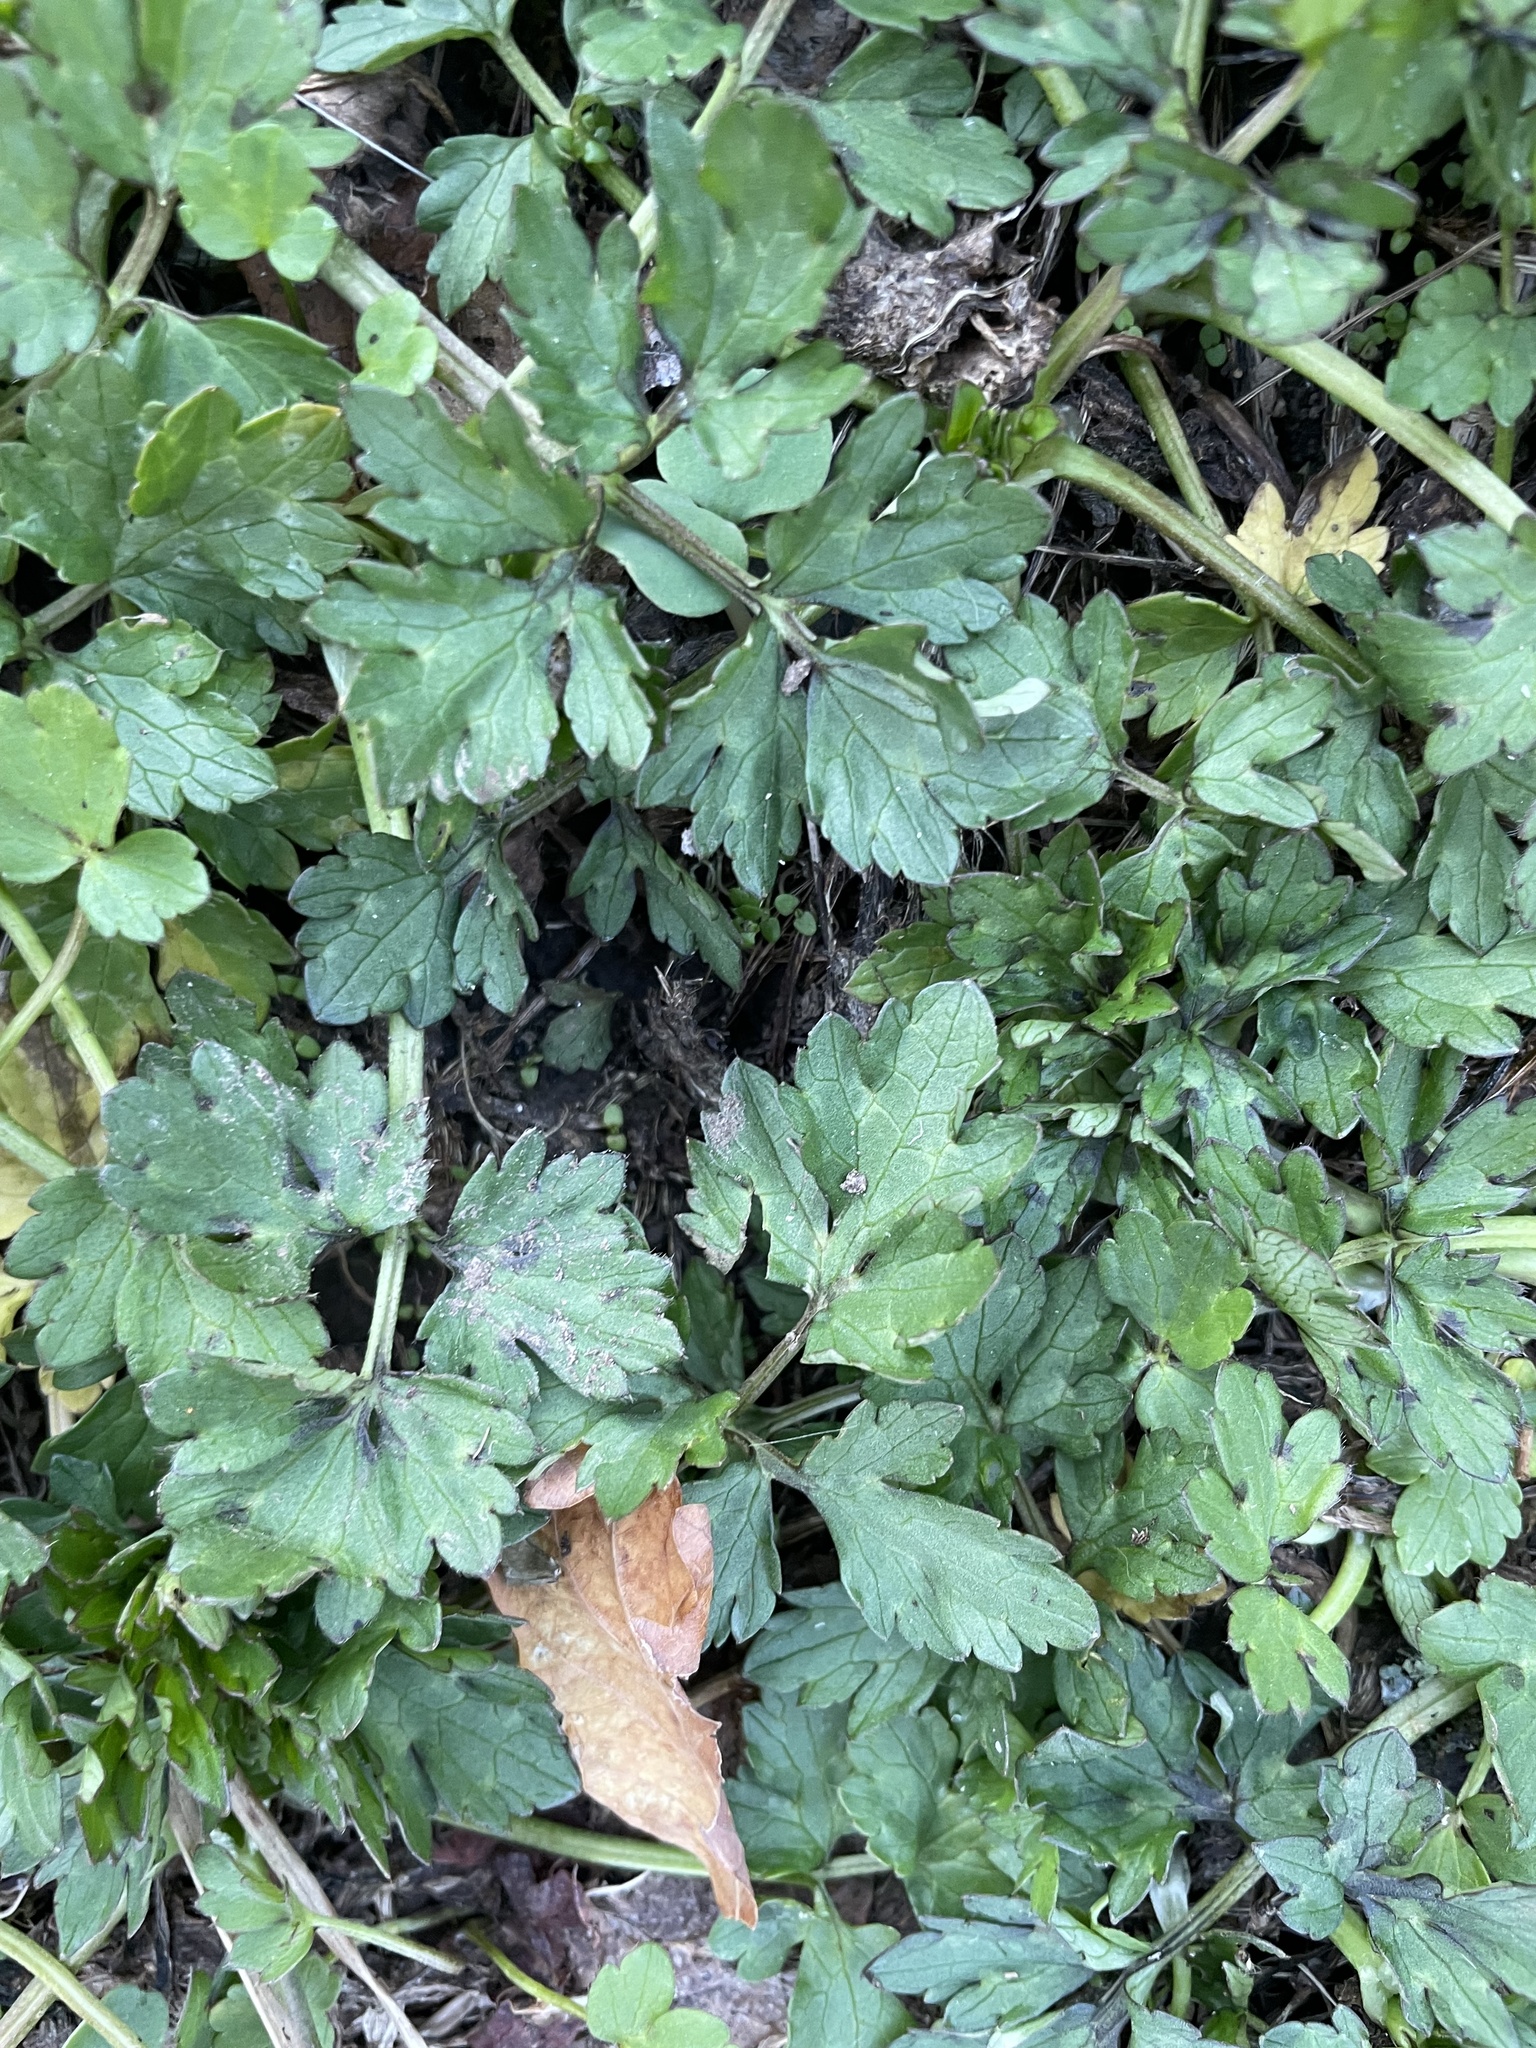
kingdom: Plantae
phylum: Tracheophyta
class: Magnoliopsida
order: Ranunculales
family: Ranunculaceae
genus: Ranunculus
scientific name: Ranunculus repens
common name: Creeping buttercup
